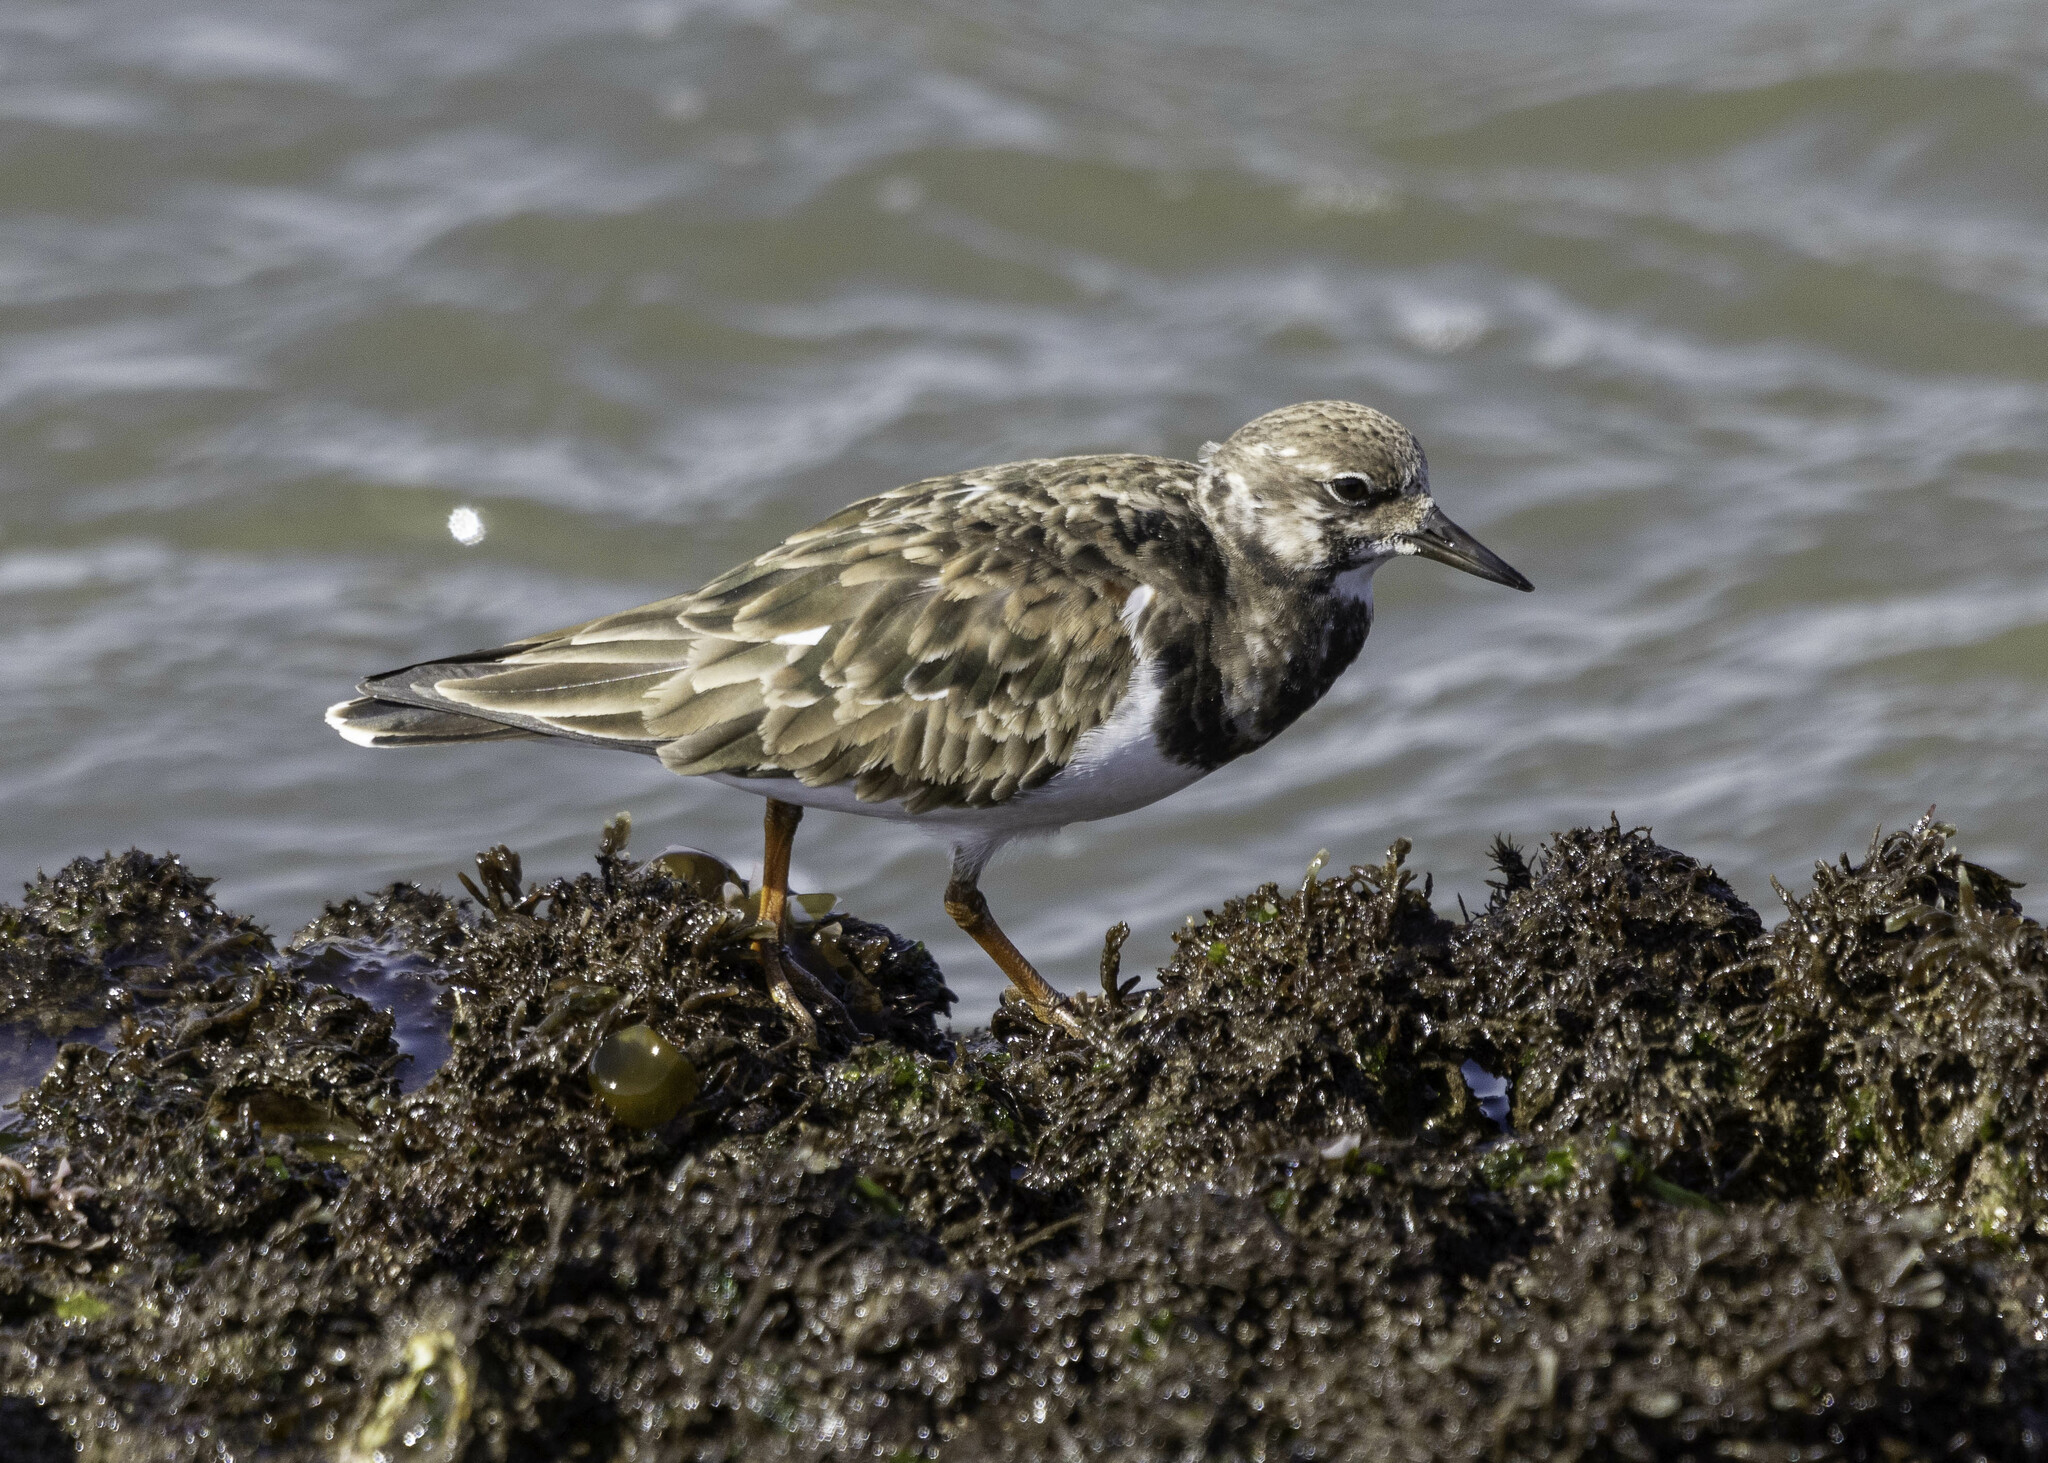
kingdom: Animalia
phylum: Chordata
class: Aves
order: Charadriiformes
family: Scolopacidae
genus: Arenaria
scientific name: Arenaria interpres
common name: Ruddy turnstone
